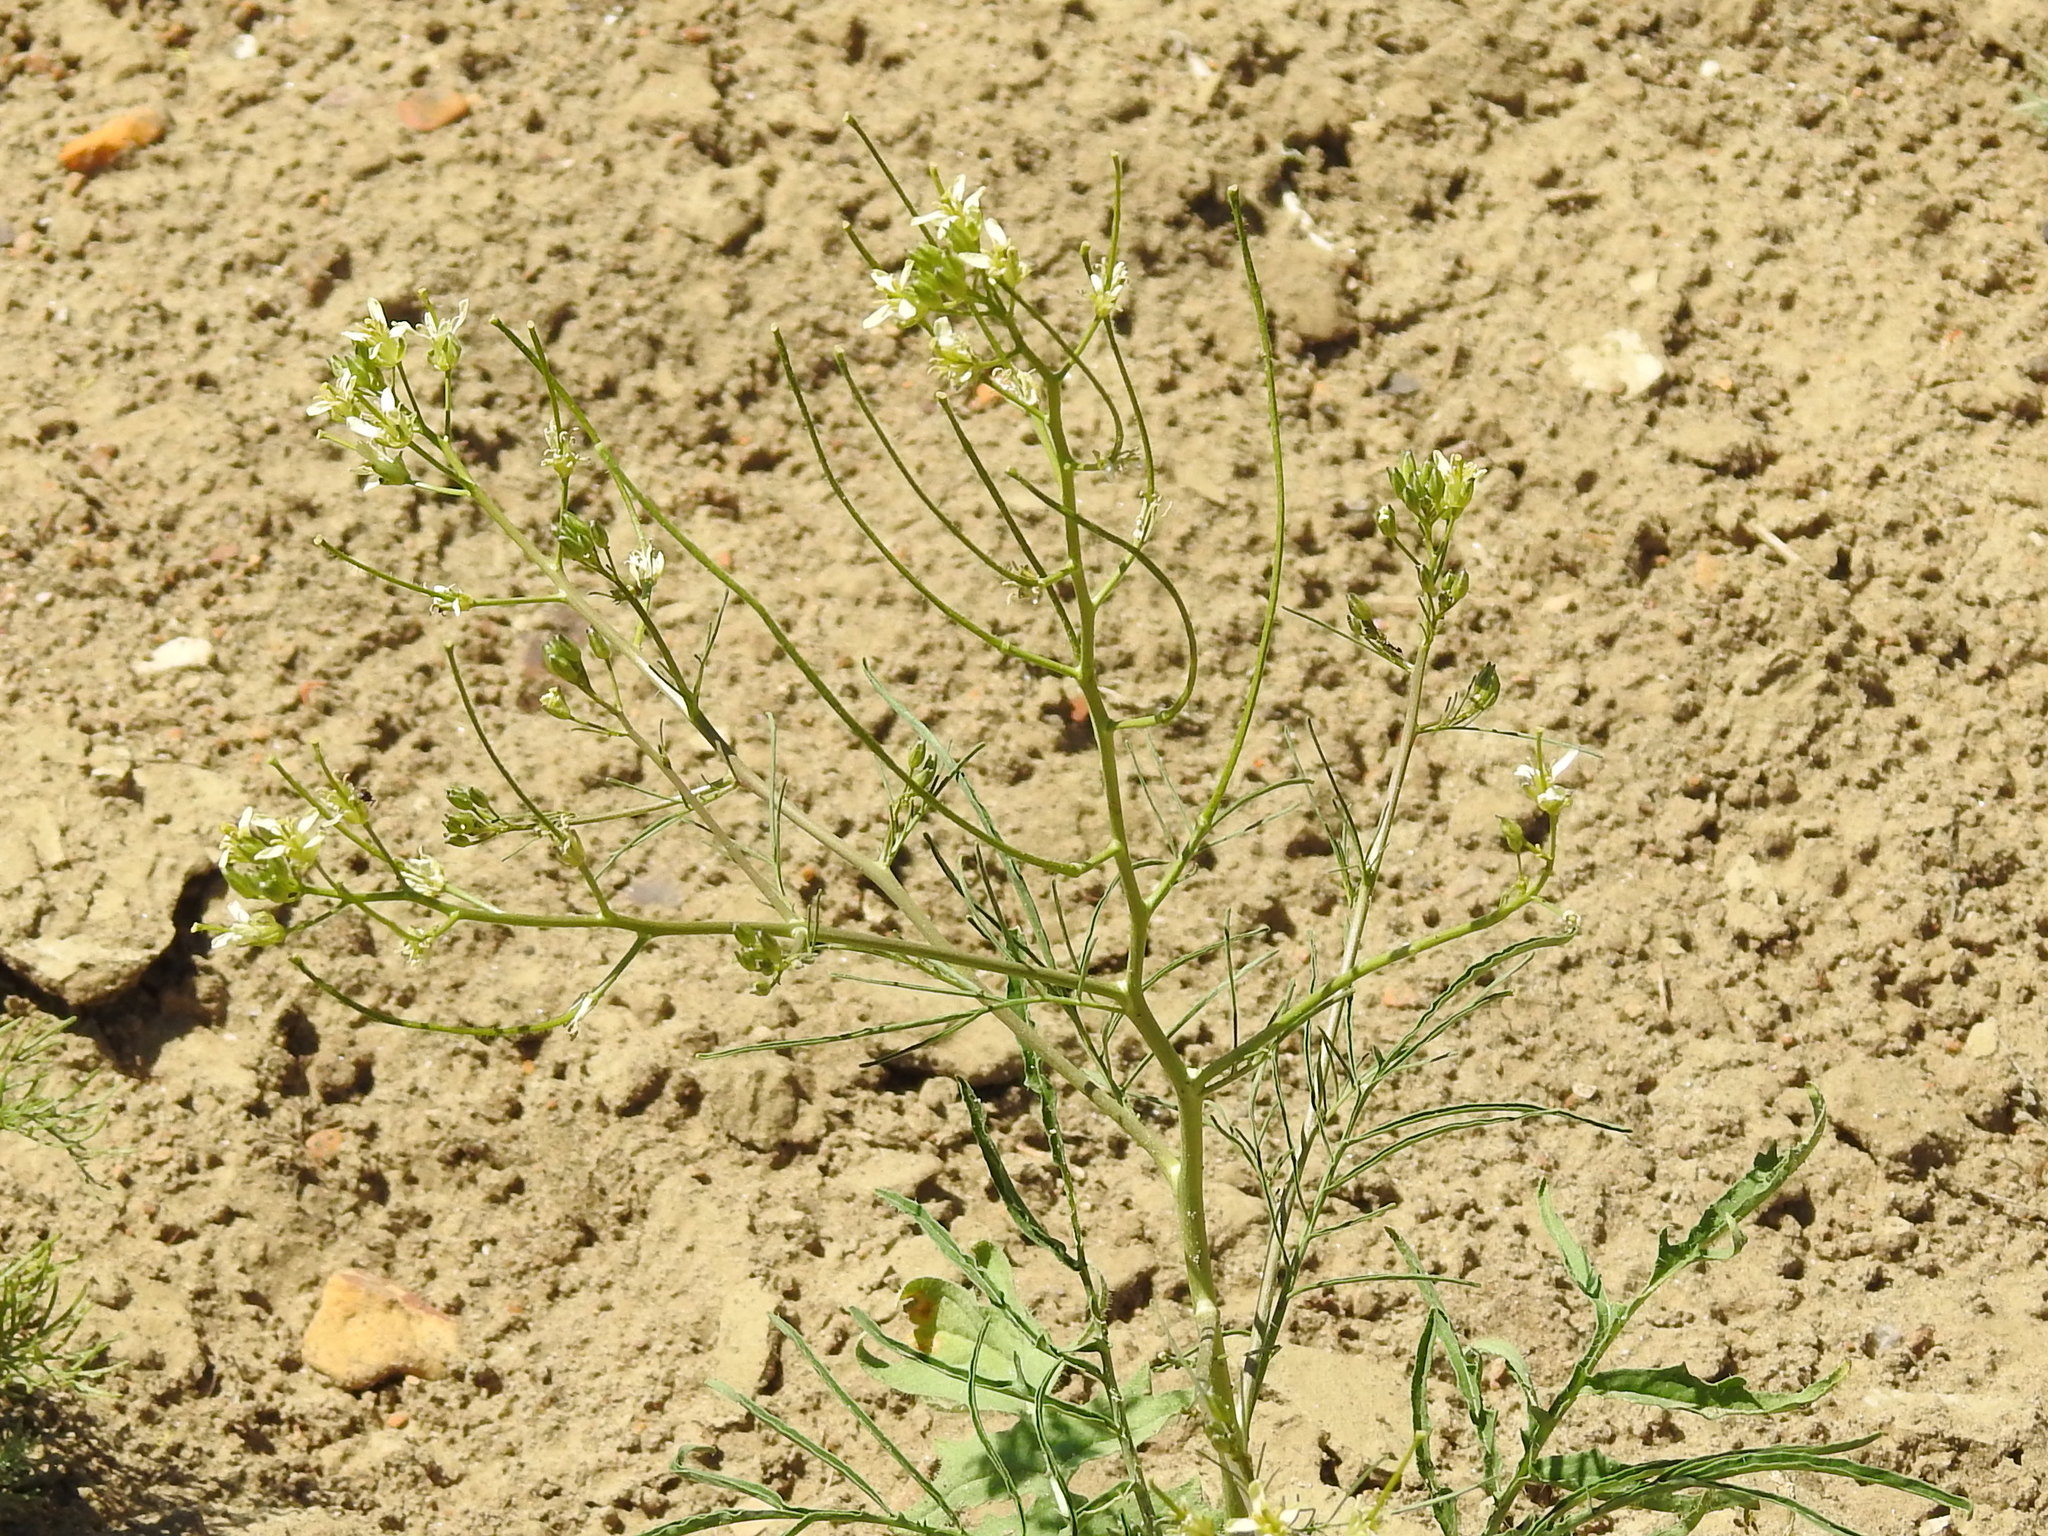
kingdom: Plantae
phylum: Tracheophyta
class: Magnoliopsida
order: Brassicales
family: Brassicaceae
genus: Sisymbrium
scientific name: Sisymbrium altissimum
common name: Tall rocket
